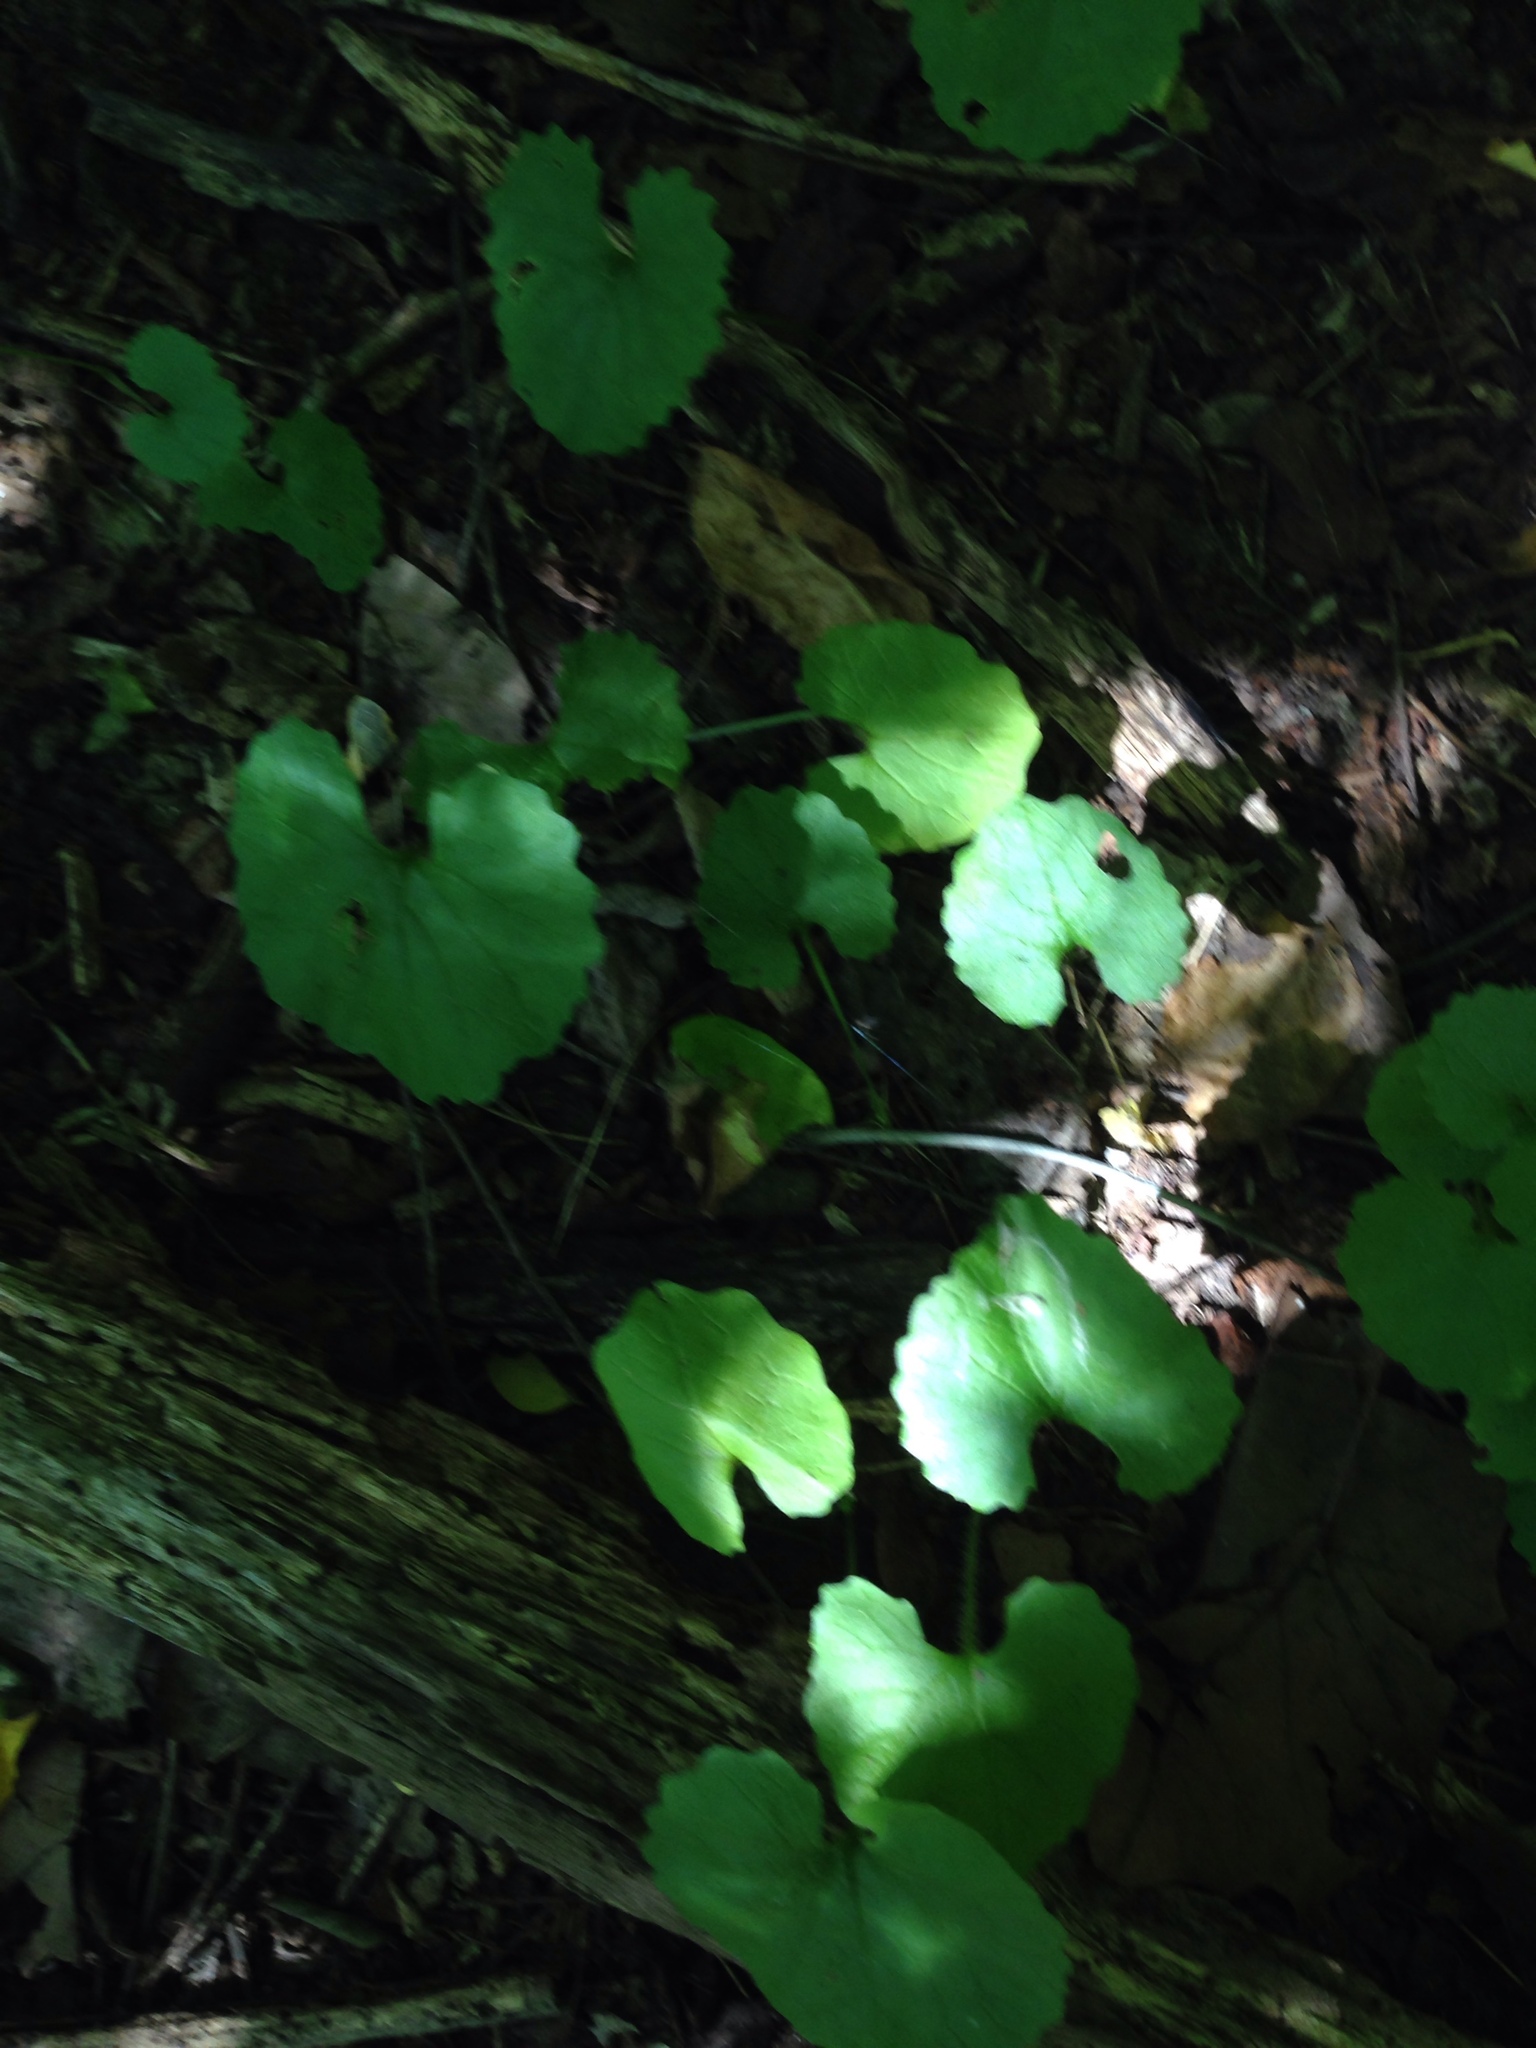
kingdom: Plantae
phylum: Tracheophyta
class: Magnoliopsida
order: Brassicales
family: Brassicaceae
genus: Alliaria
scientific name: Alliaria petiolata
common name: Garlic mustard
